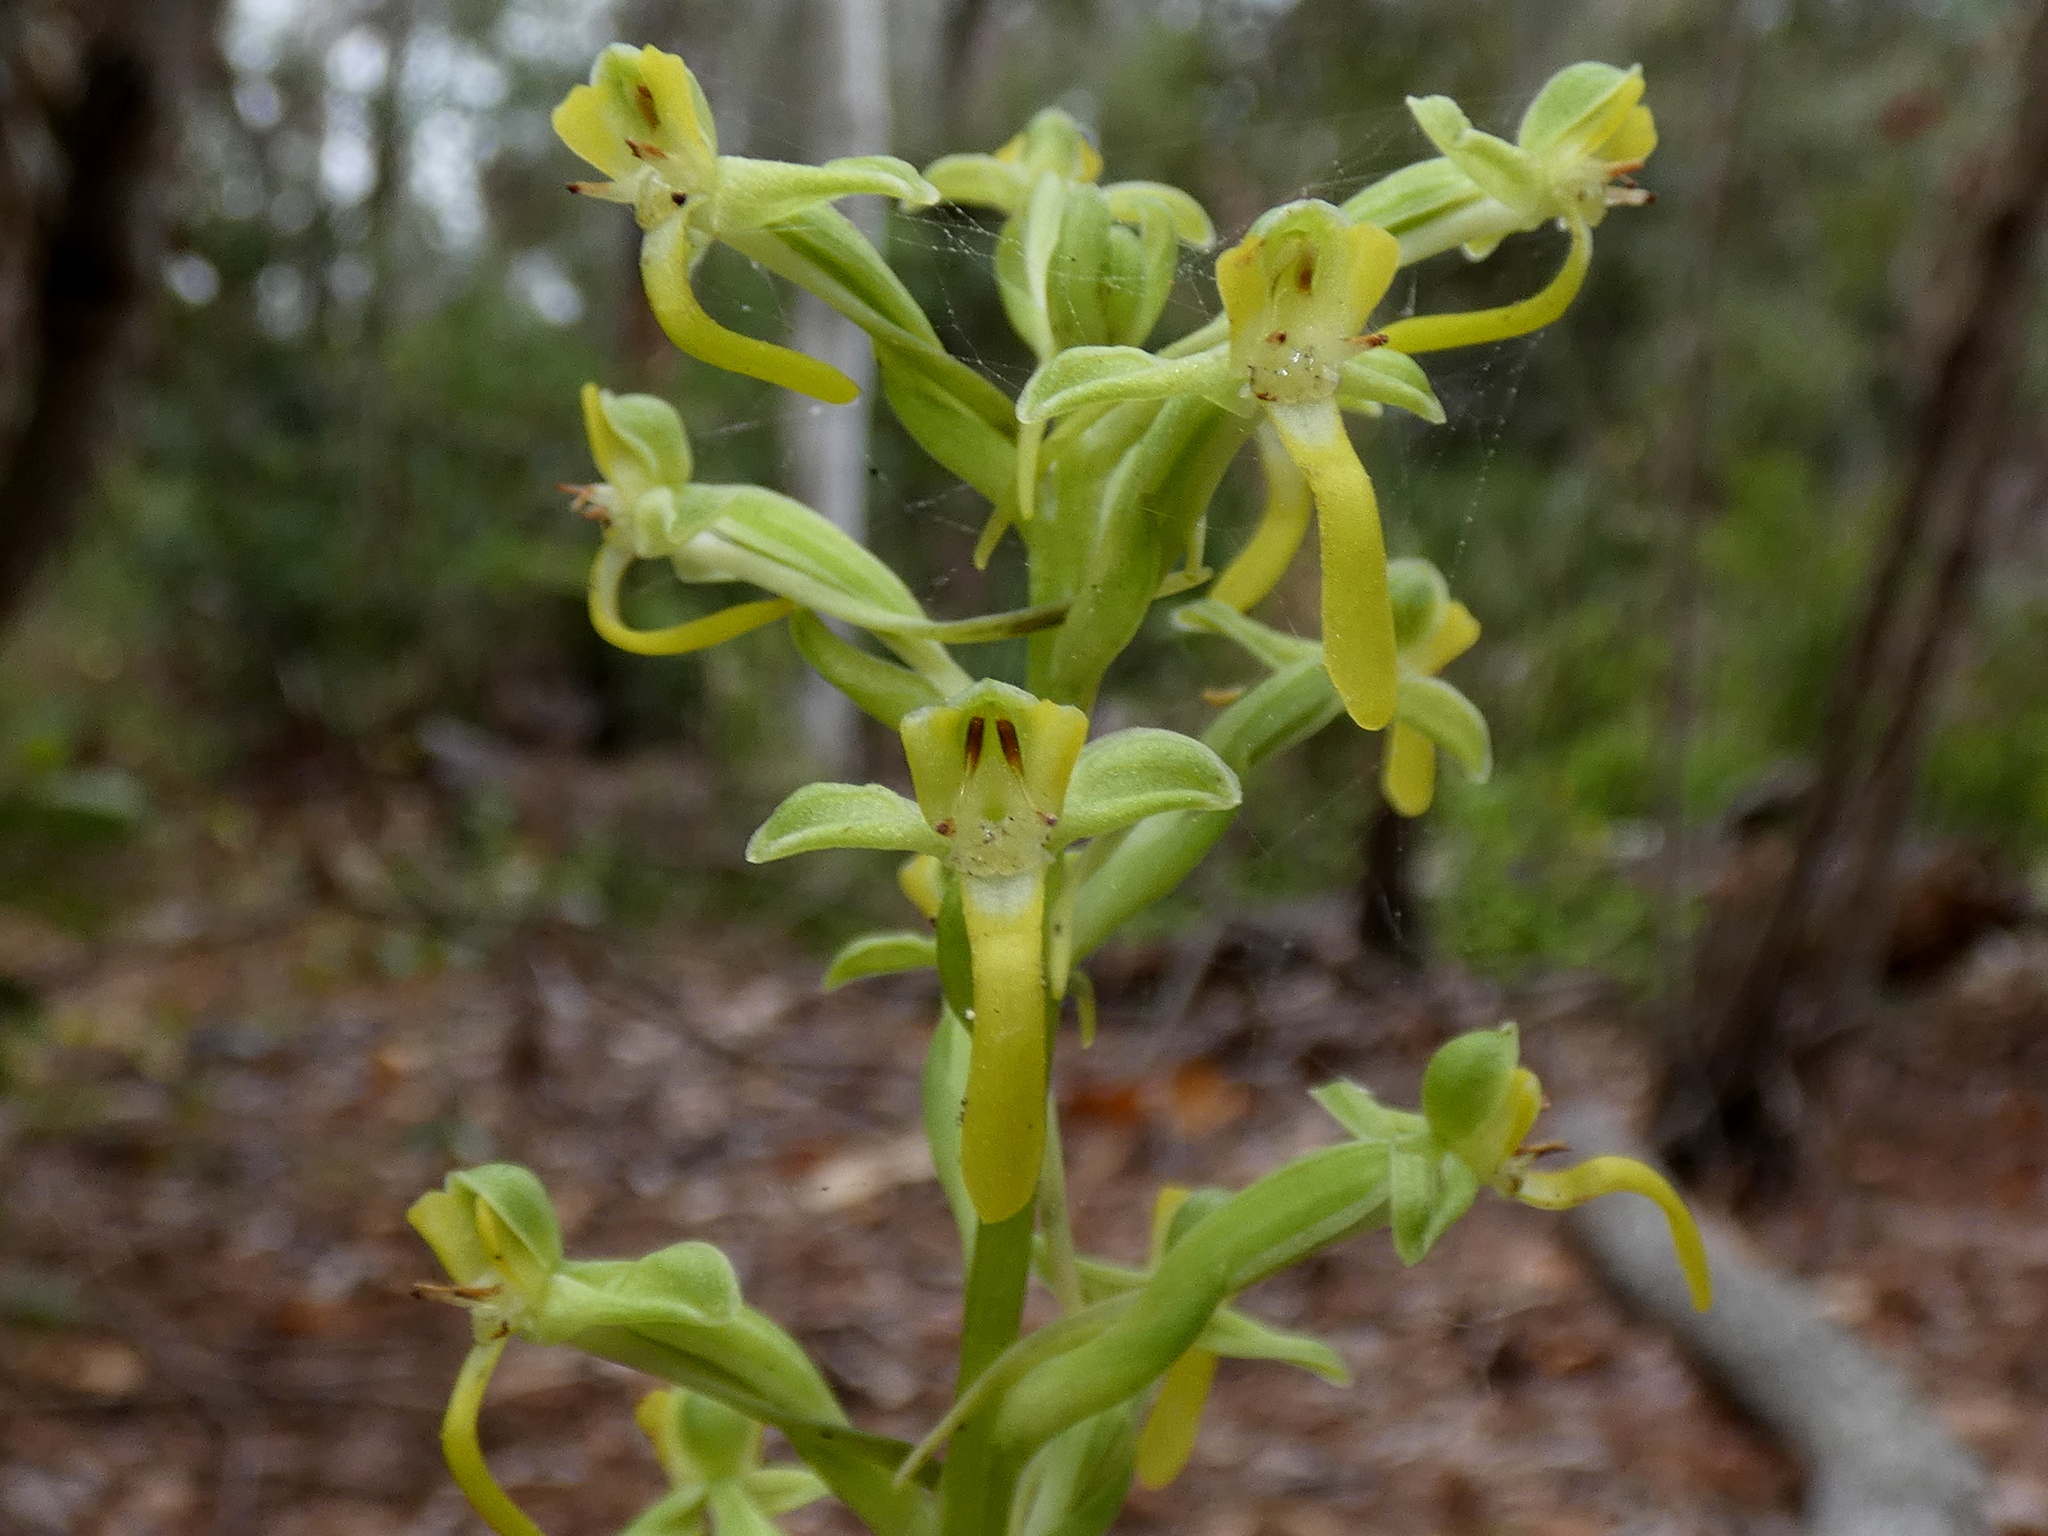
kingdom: Plantae
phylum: Tracheophyta
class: Liliopsida
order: Asparagales
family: Orchidaceae
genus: Habenaria
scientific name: Habenaria floribunda
